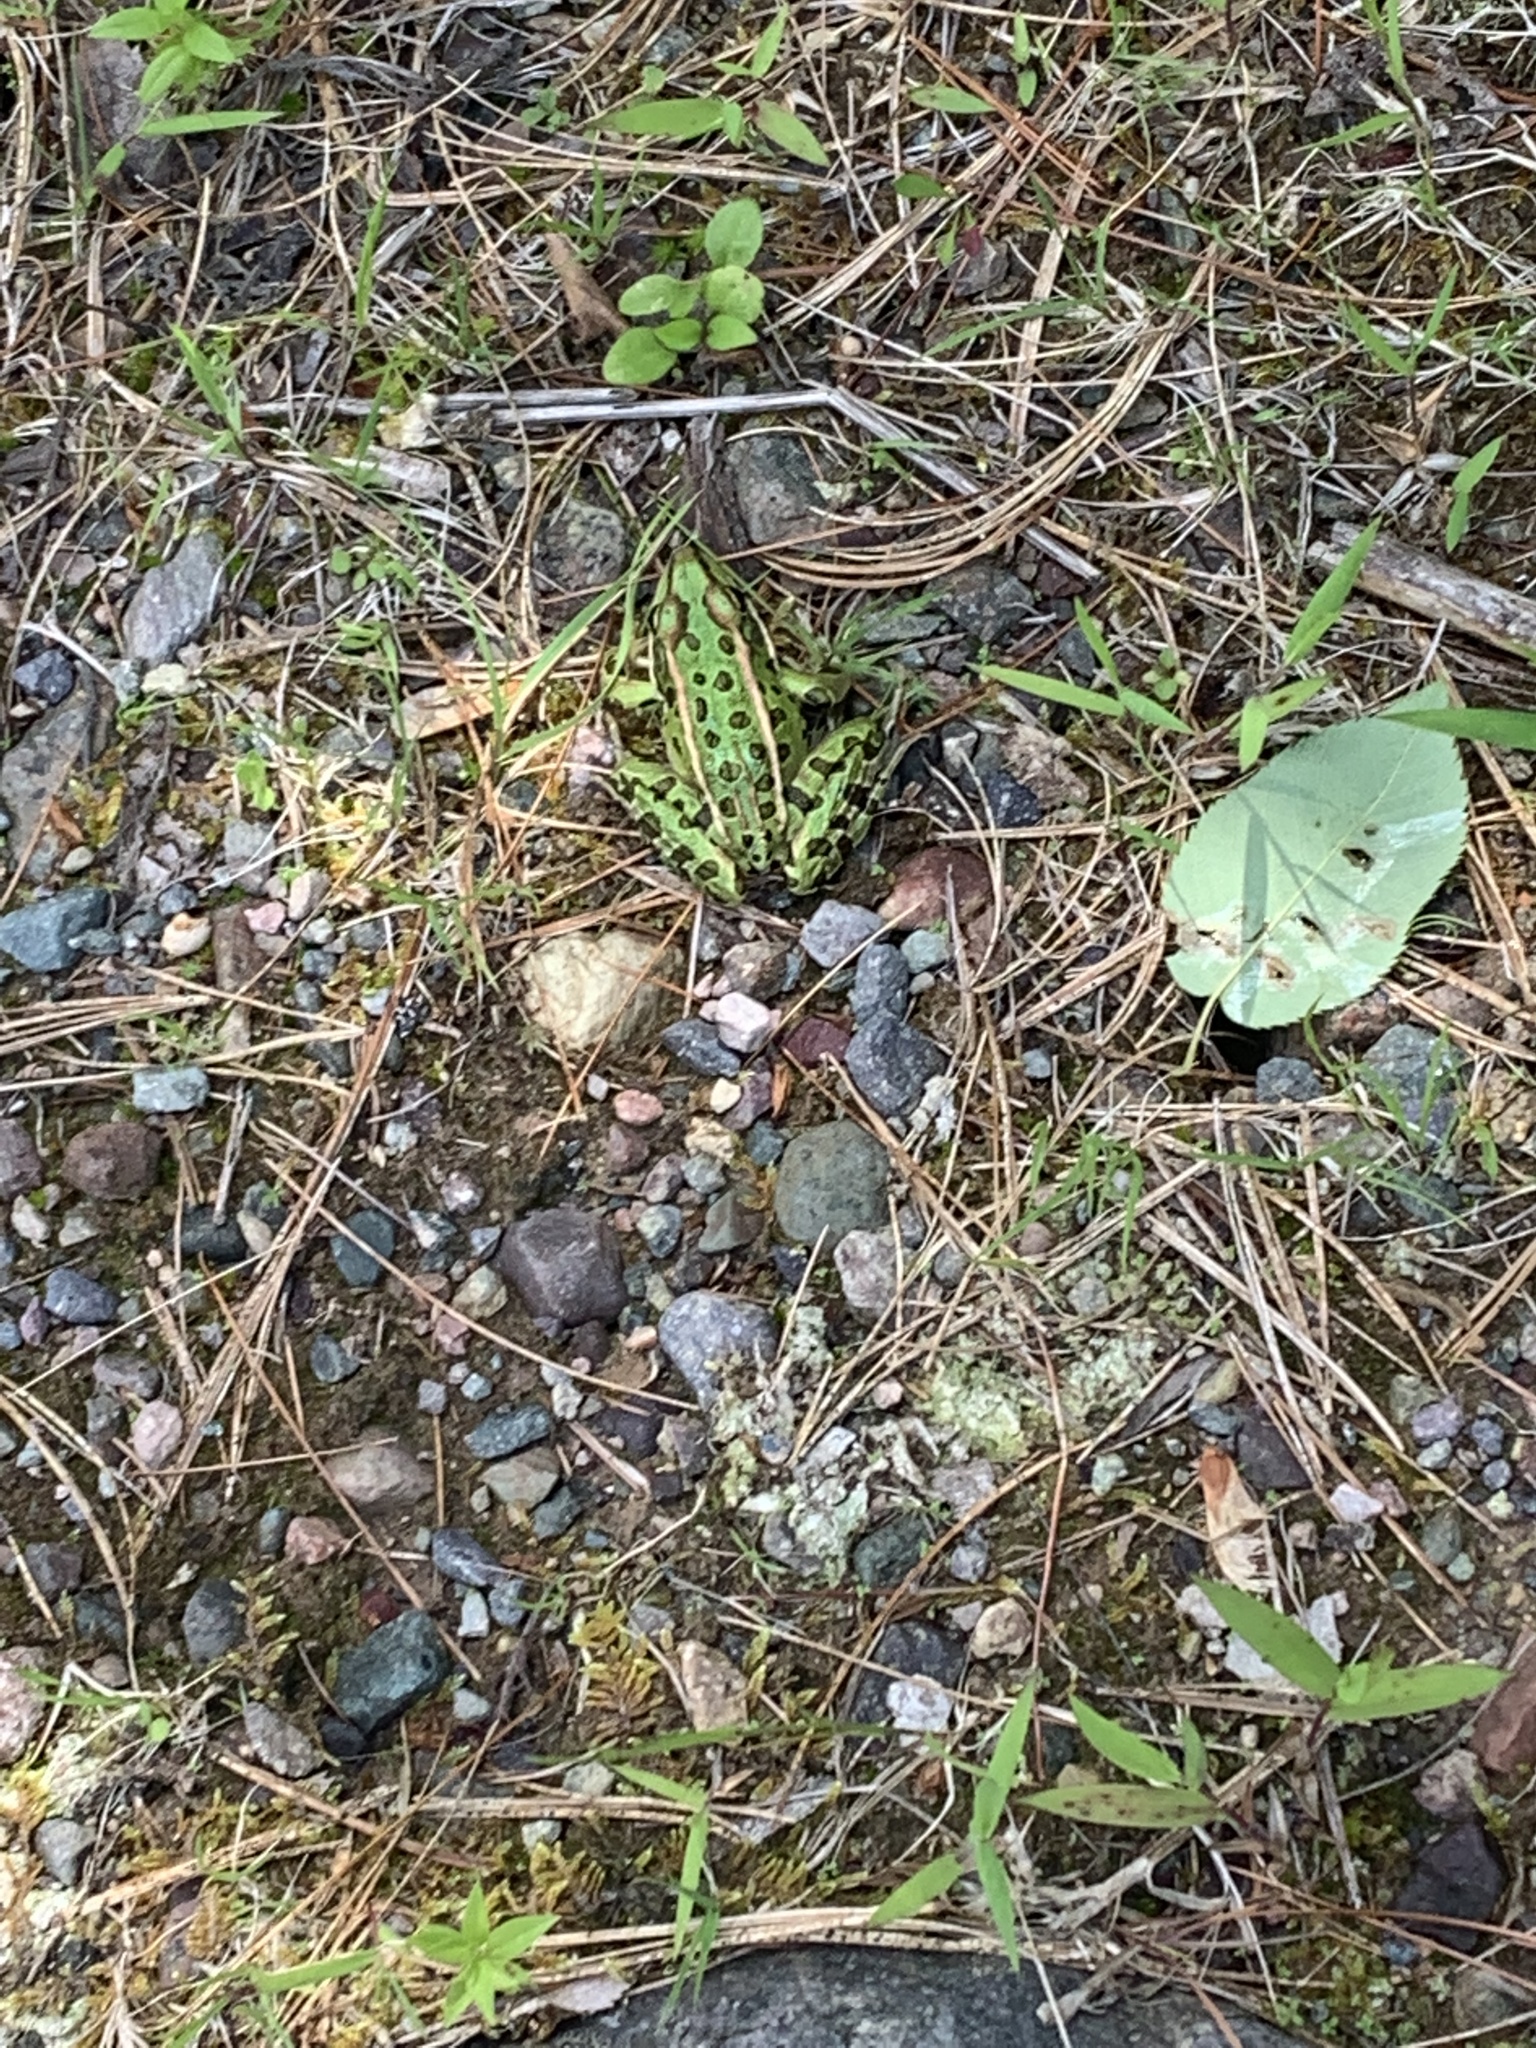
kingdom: Animalia
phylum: Chordata
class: Amphibia
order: Anura
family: Ranidae
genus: Lithobates
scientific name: Lithobates pipiens
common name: Northern leopard frog
